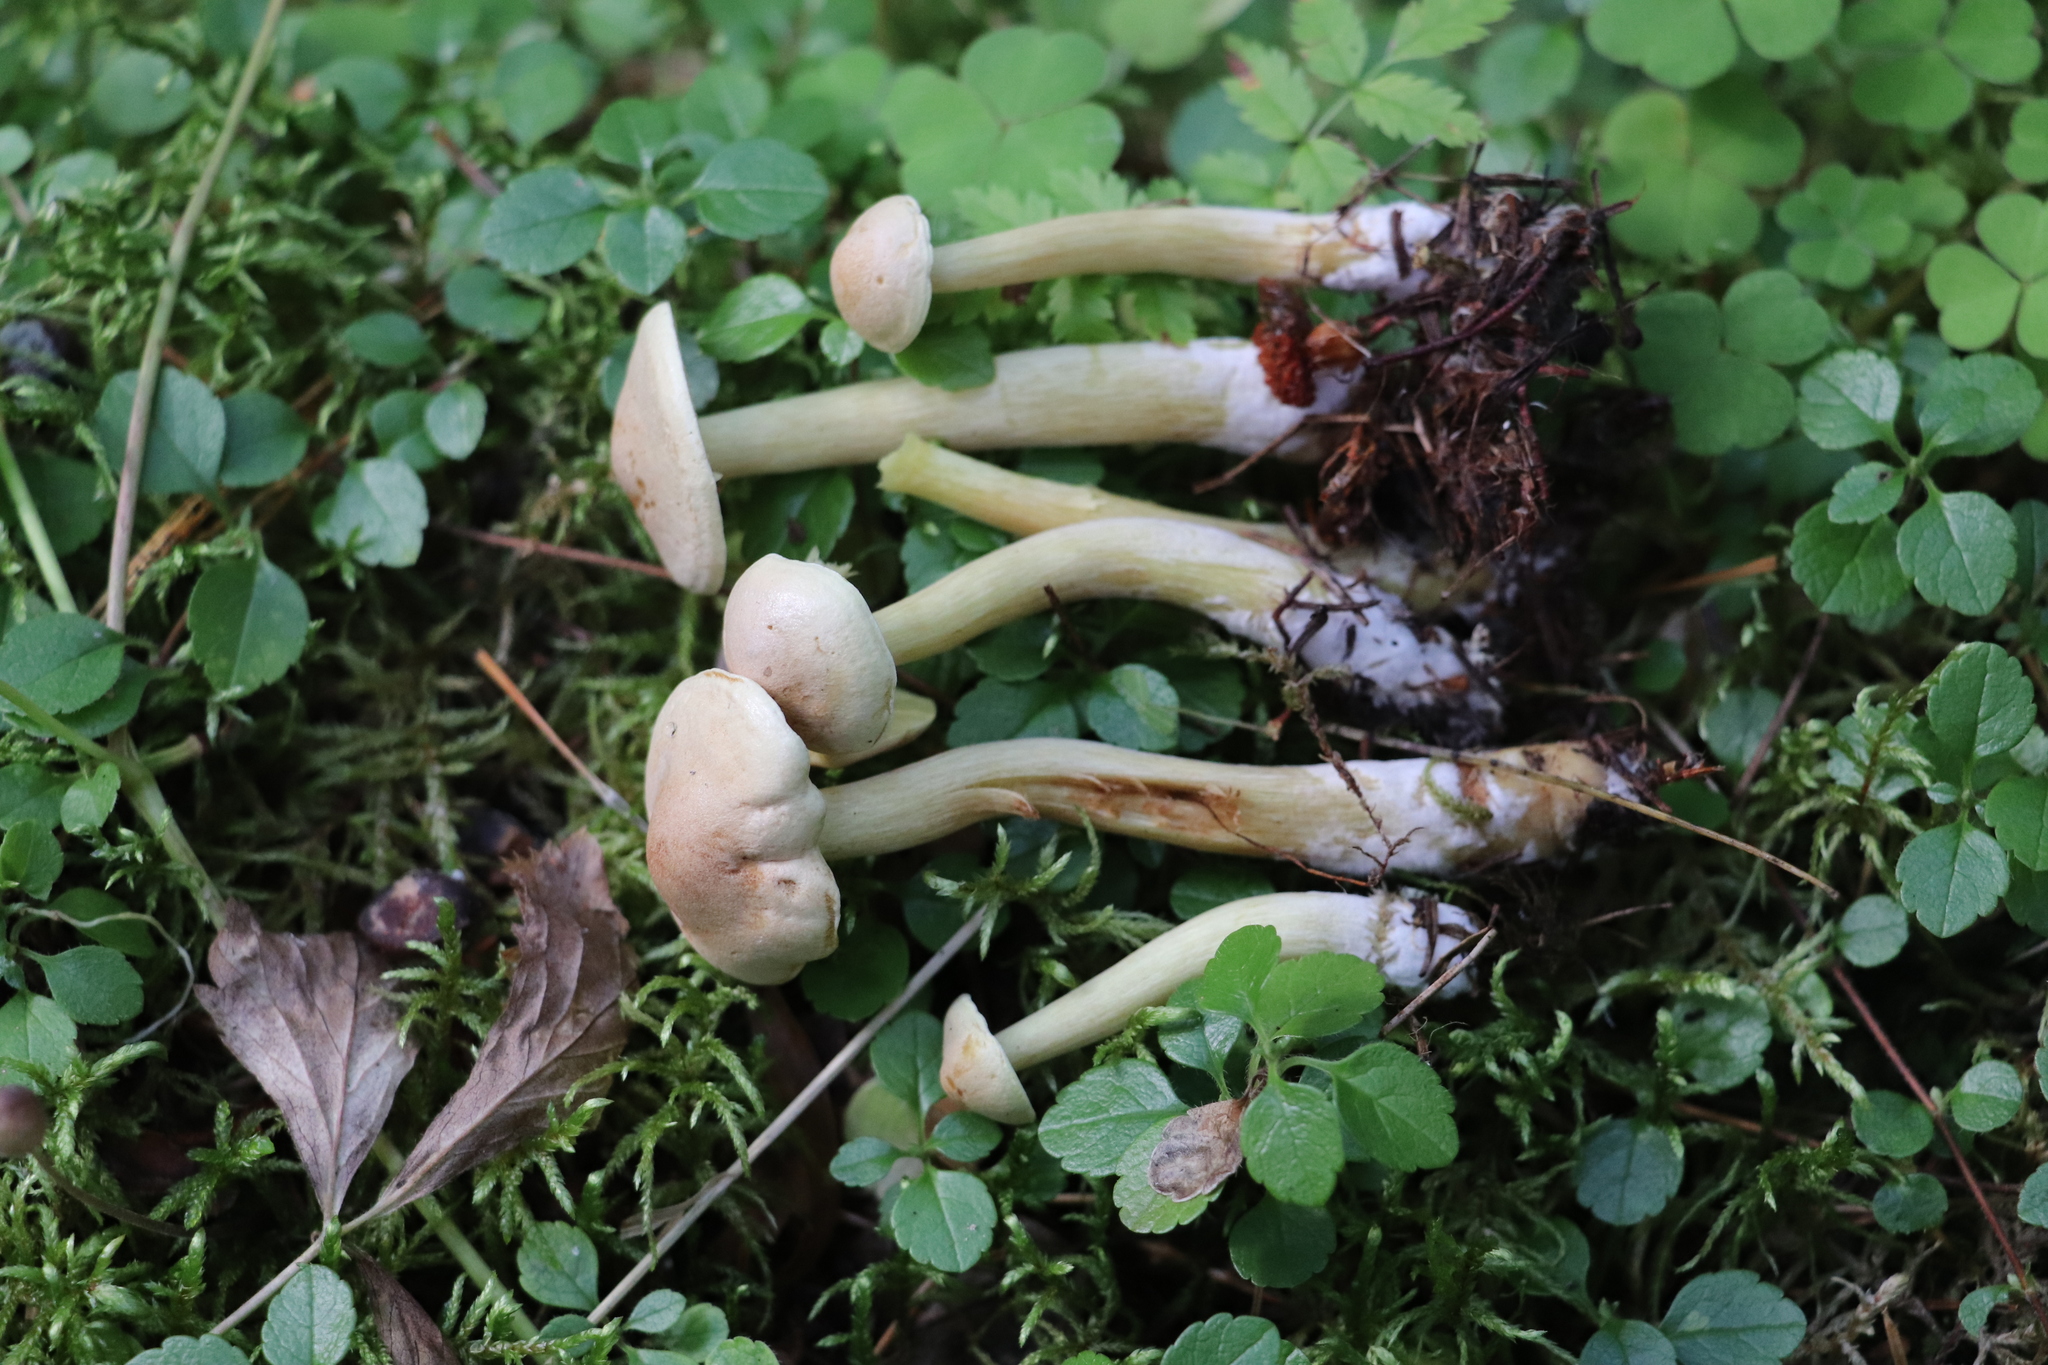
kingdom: Fungi
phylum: Basidiomycota
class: Agaricomycetes
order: Agaricales
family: Tricholomataceae
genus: Tricholoma
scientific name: Tricholoma inamoenum
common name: Gassy knight
